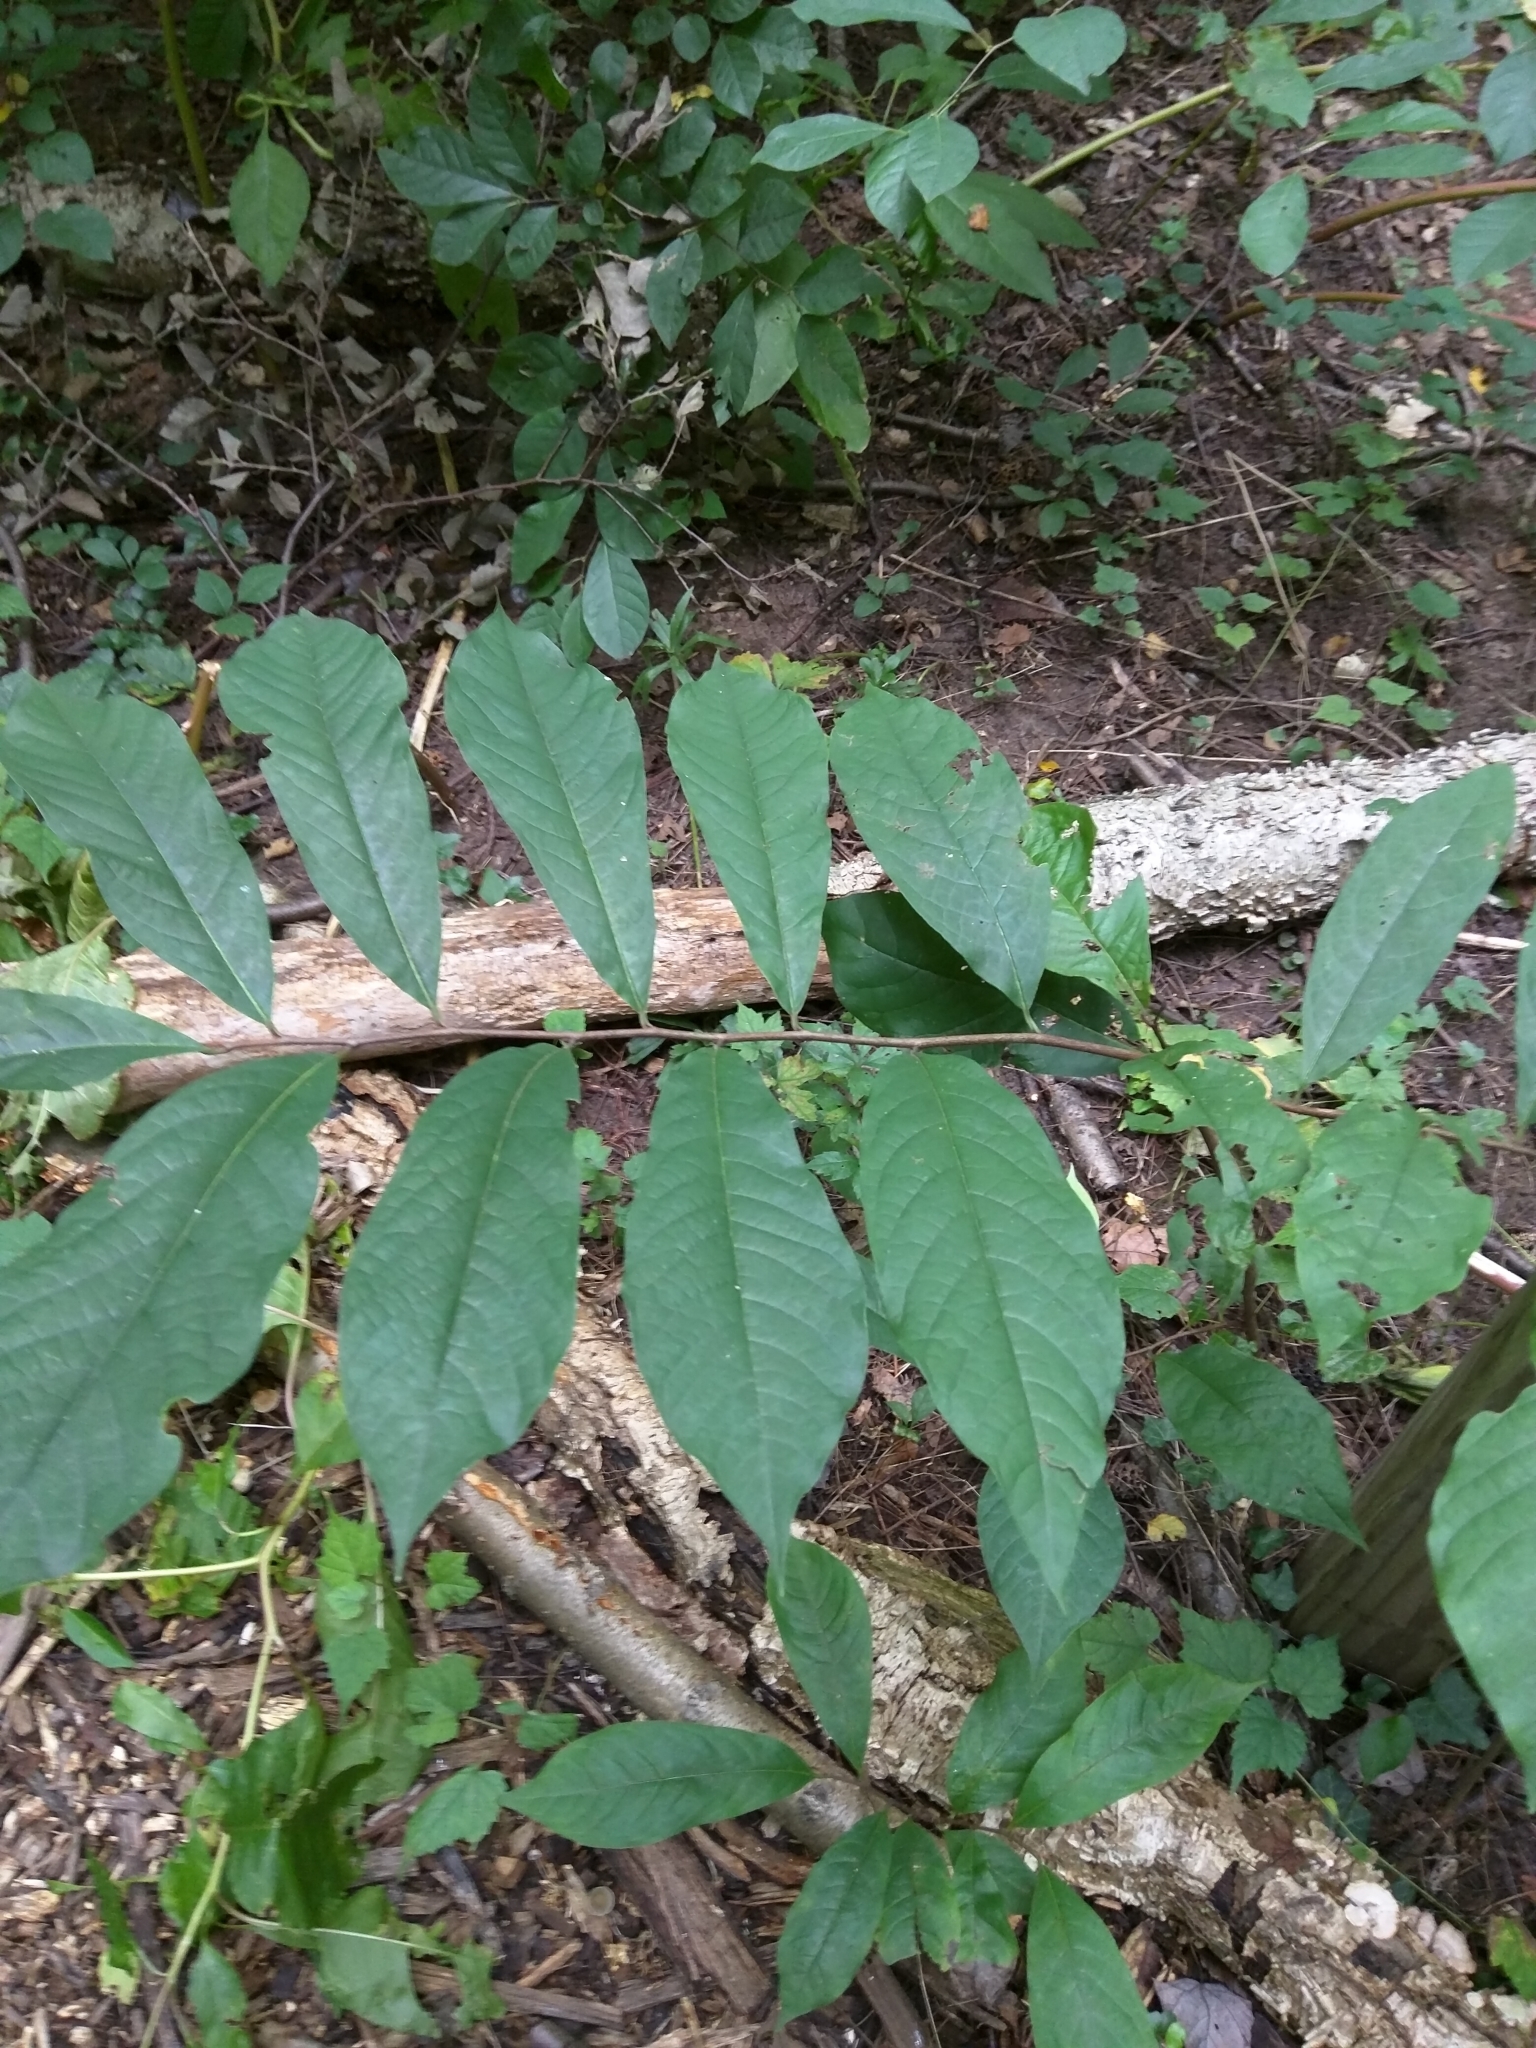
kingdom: Plantae
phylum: Tracheophyta
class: Magnoliopsida
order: Magnoliales
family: Annonaceae
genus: Asimina
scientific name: Asimina triloba
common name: Dog-banana
